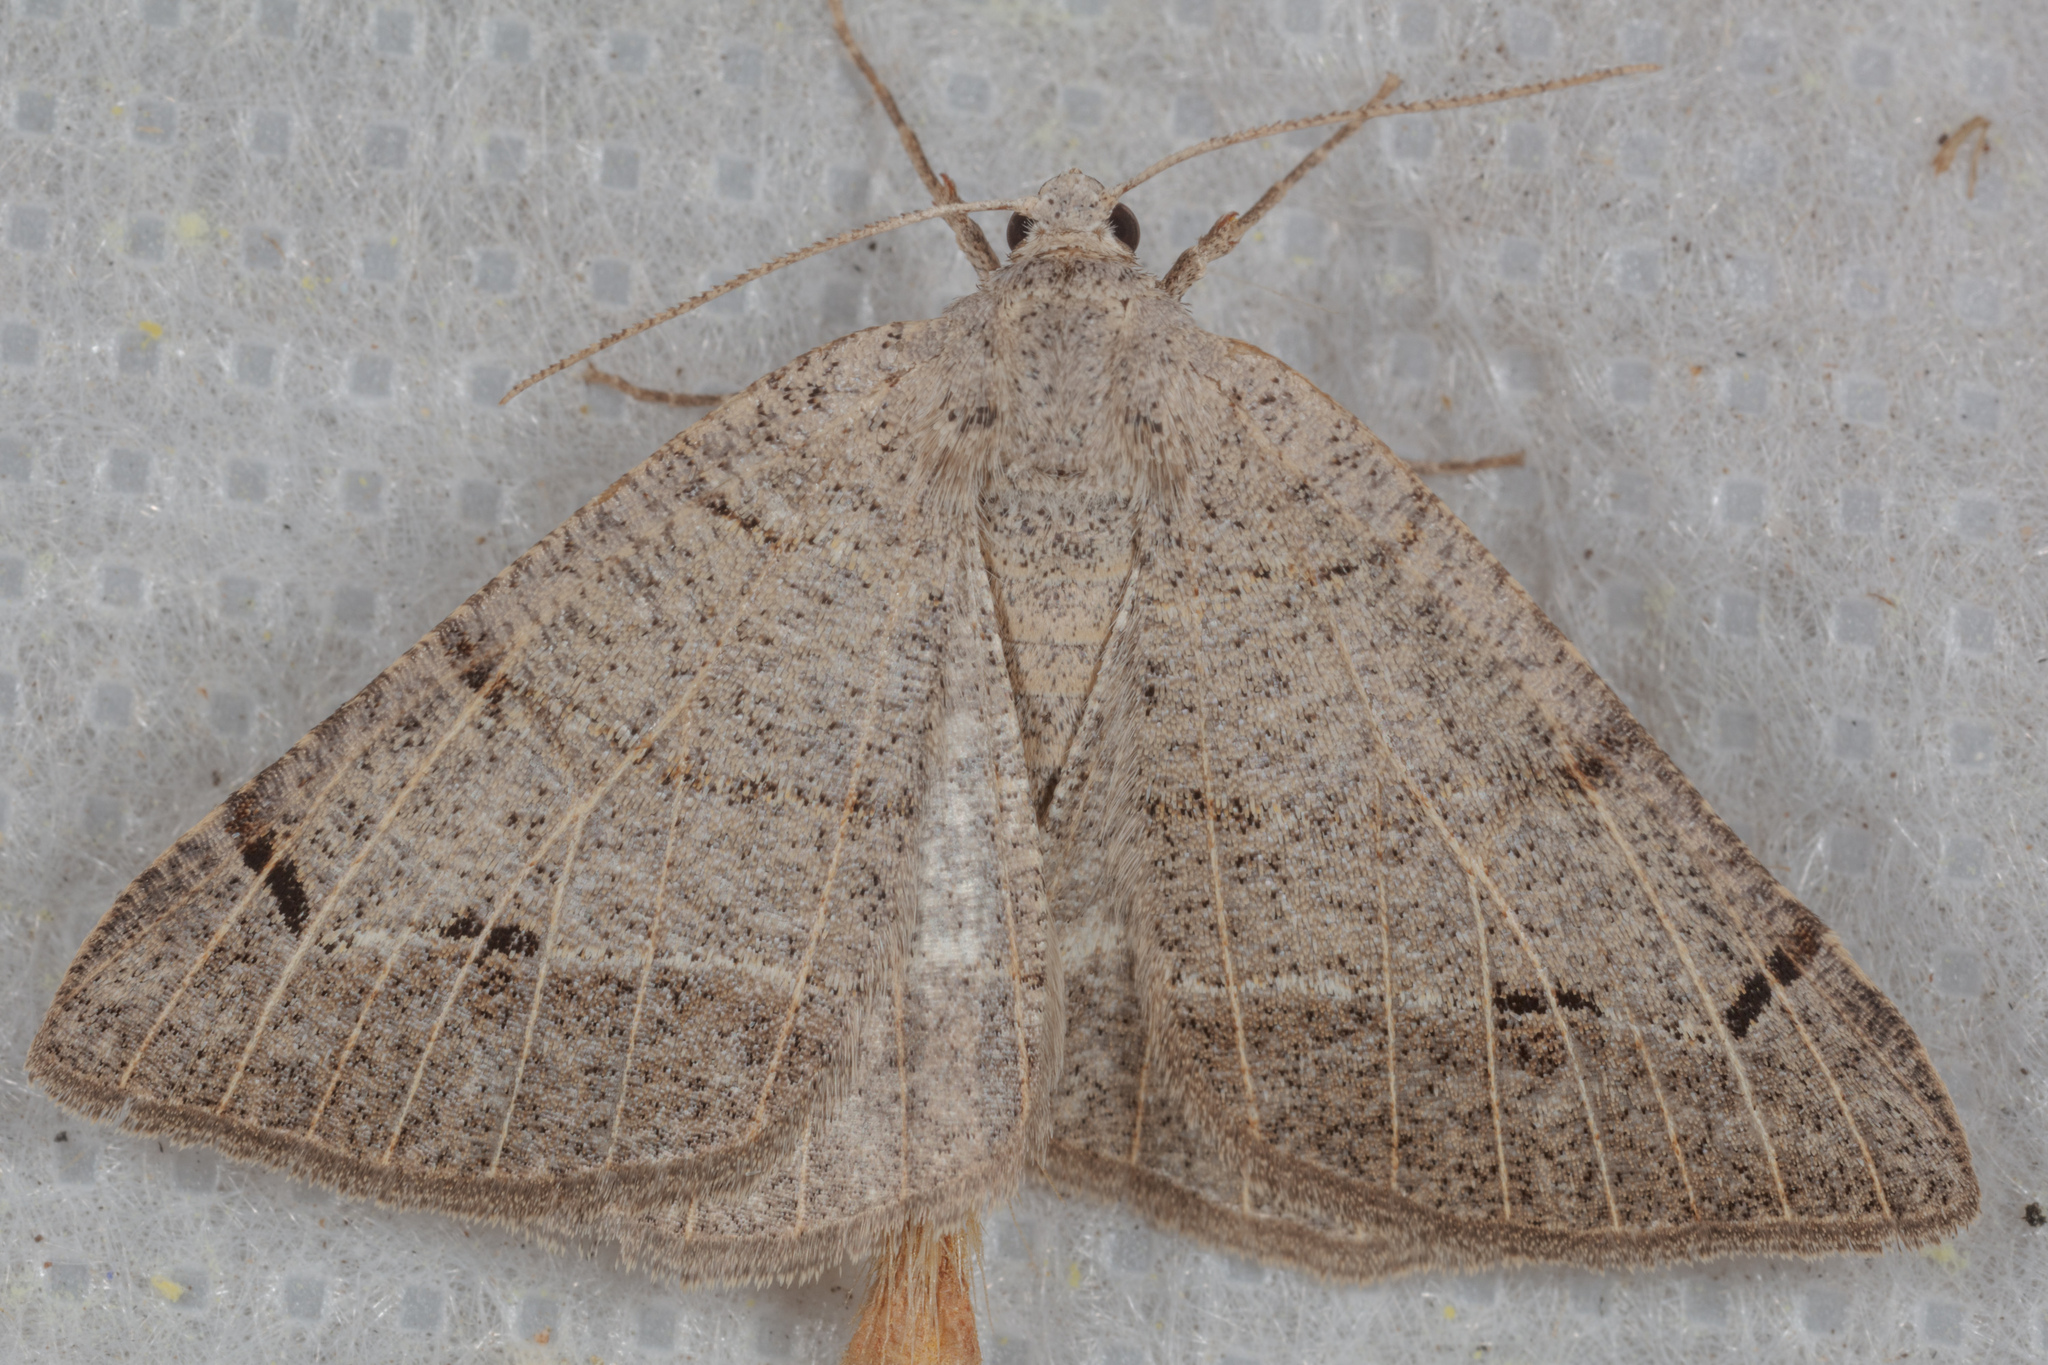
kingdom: Animalia
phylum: Arthropoda
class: Insecta
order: Lepidoptera
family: Geometridae
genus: Isturgia
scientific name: Isturgia dislocaria
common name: Pale-viened enconista
